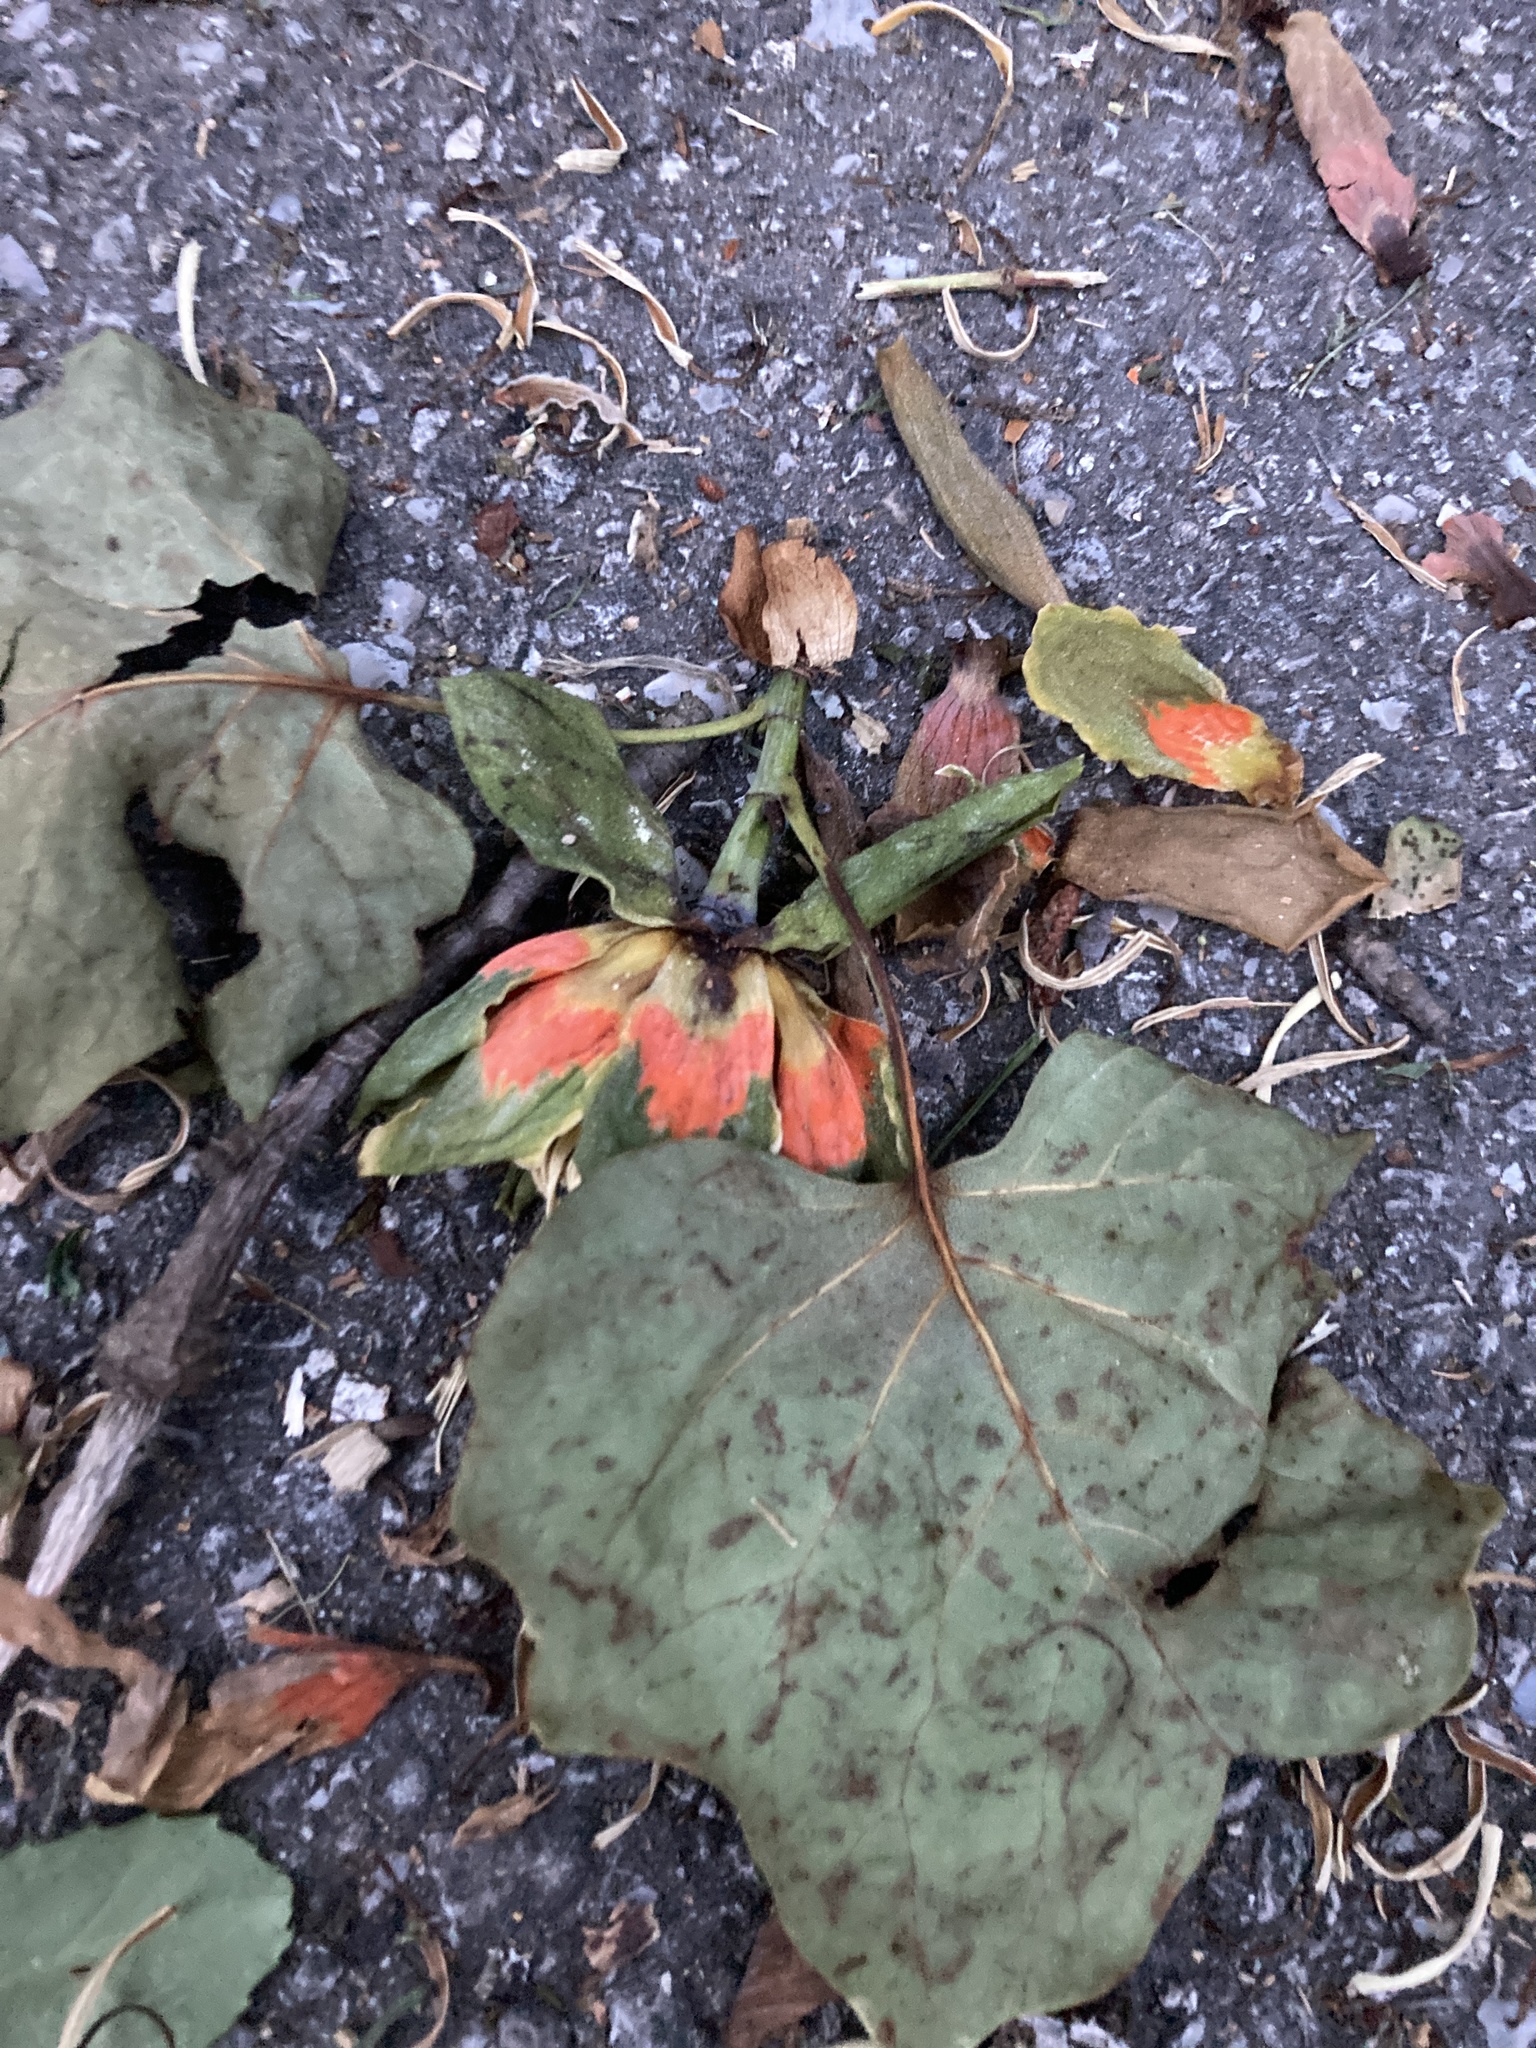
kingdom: Plantae
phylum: Tracheophyta
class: Magnoliopsida
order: Magnoliales
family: Magnoliaceae
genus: Liriodendron
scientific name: Liriodendron tulipifera
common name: Tulip tree
